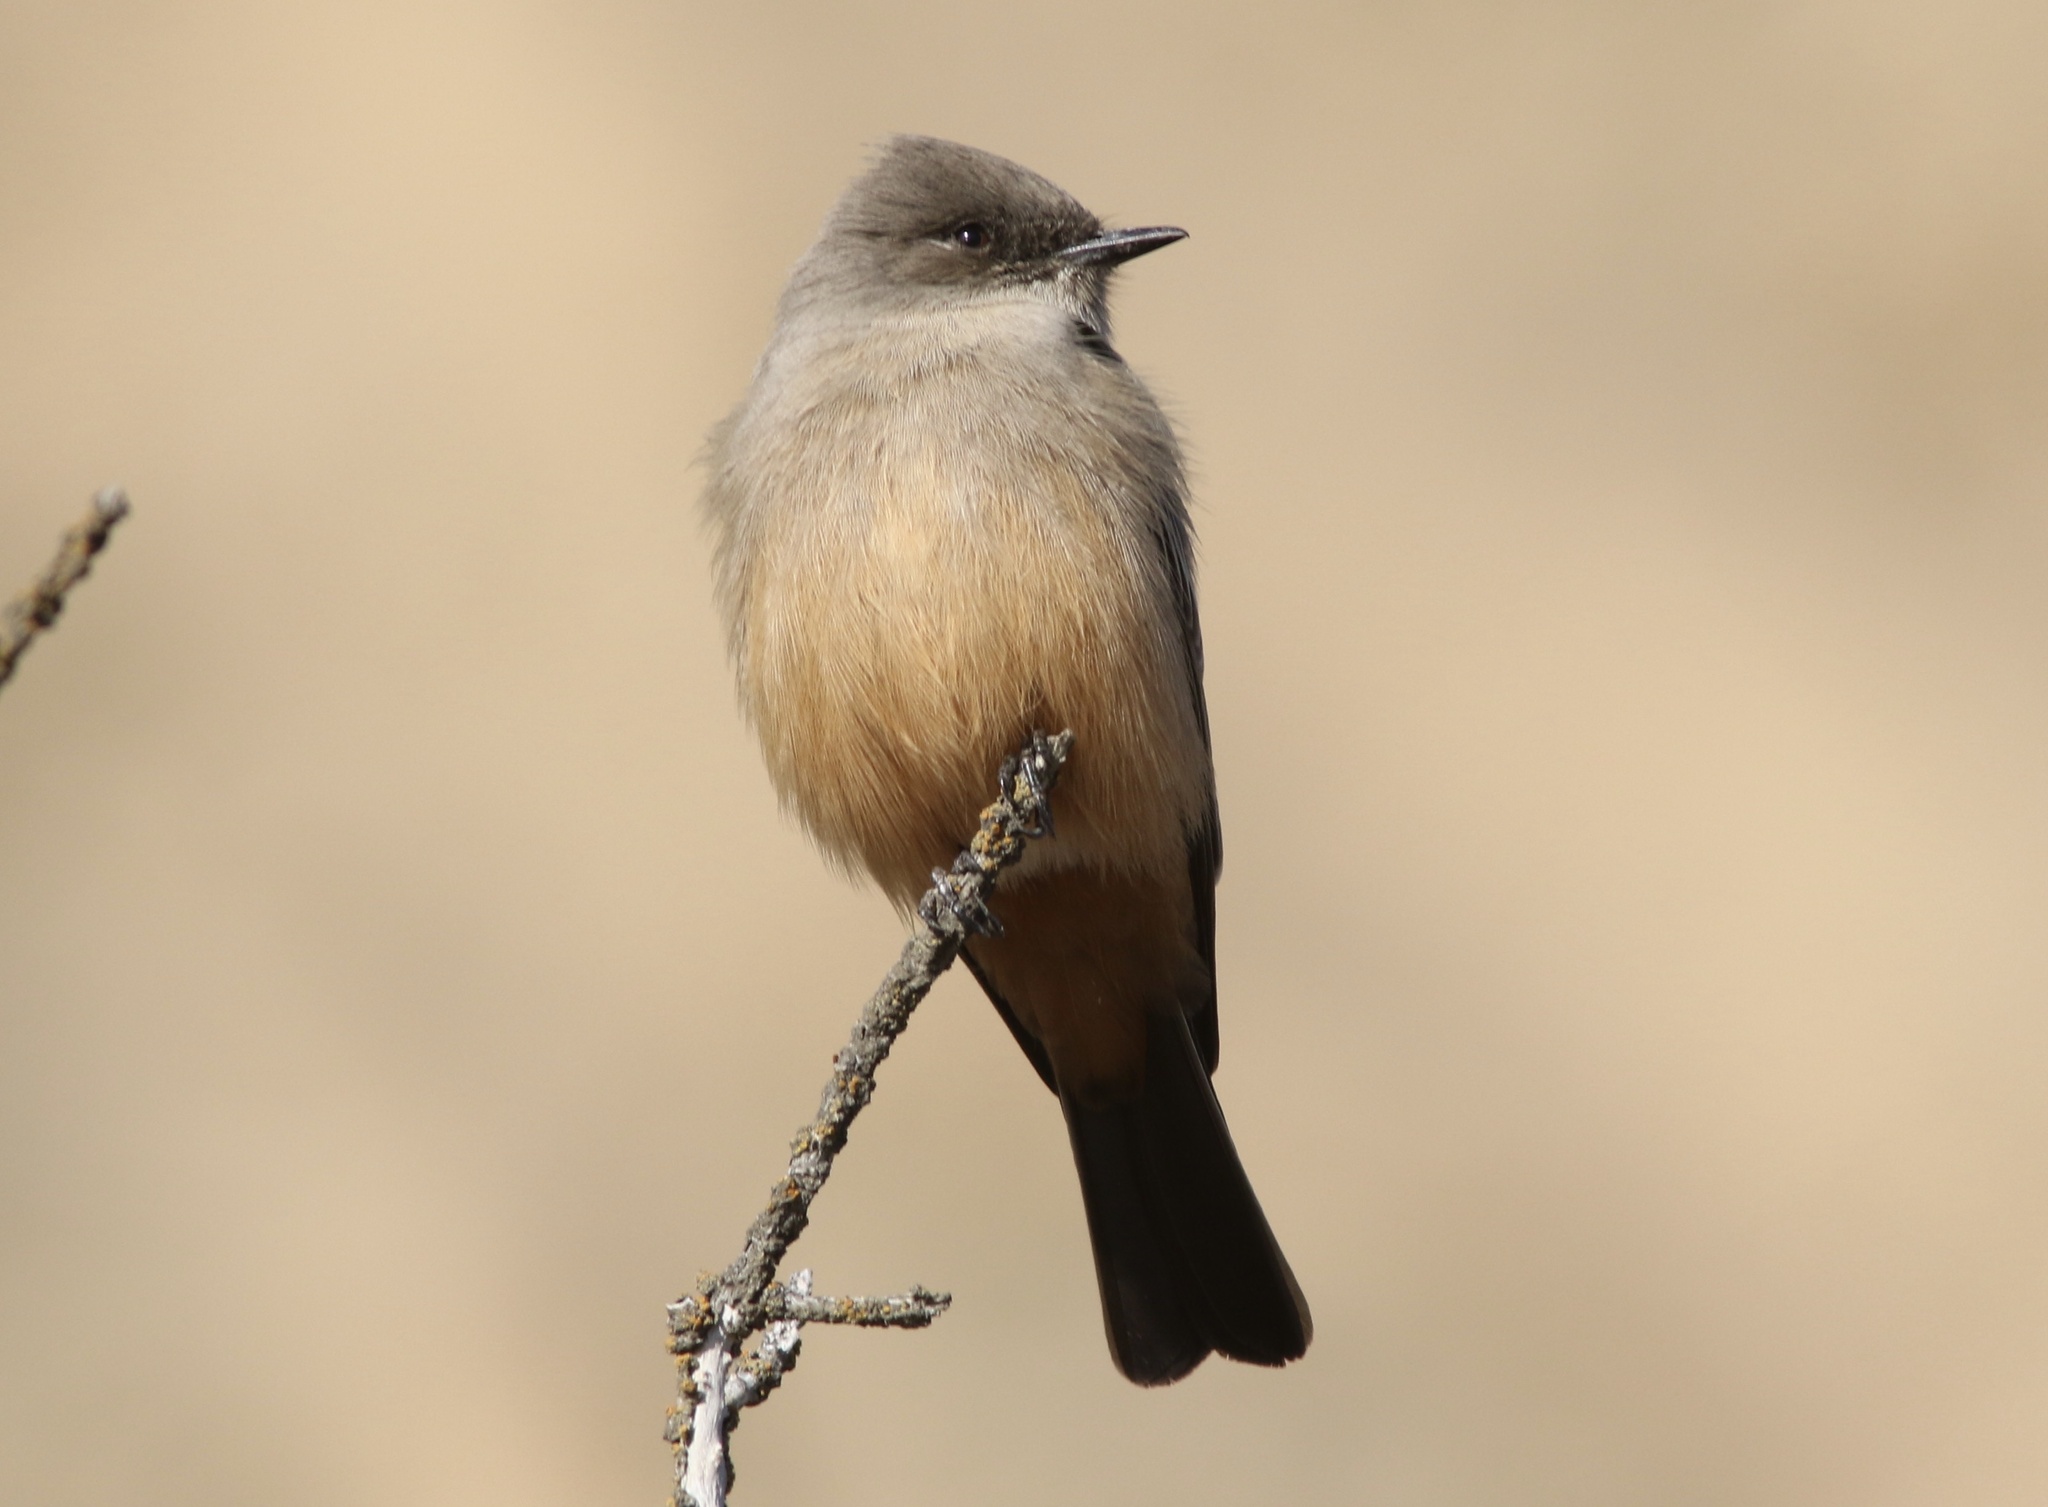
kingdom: Animalia
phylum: Chordata
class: Aves
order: Passeriformes
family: Tyrannidae
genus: Sayornis
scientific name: Sayornis saya
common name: Say's phoebe
